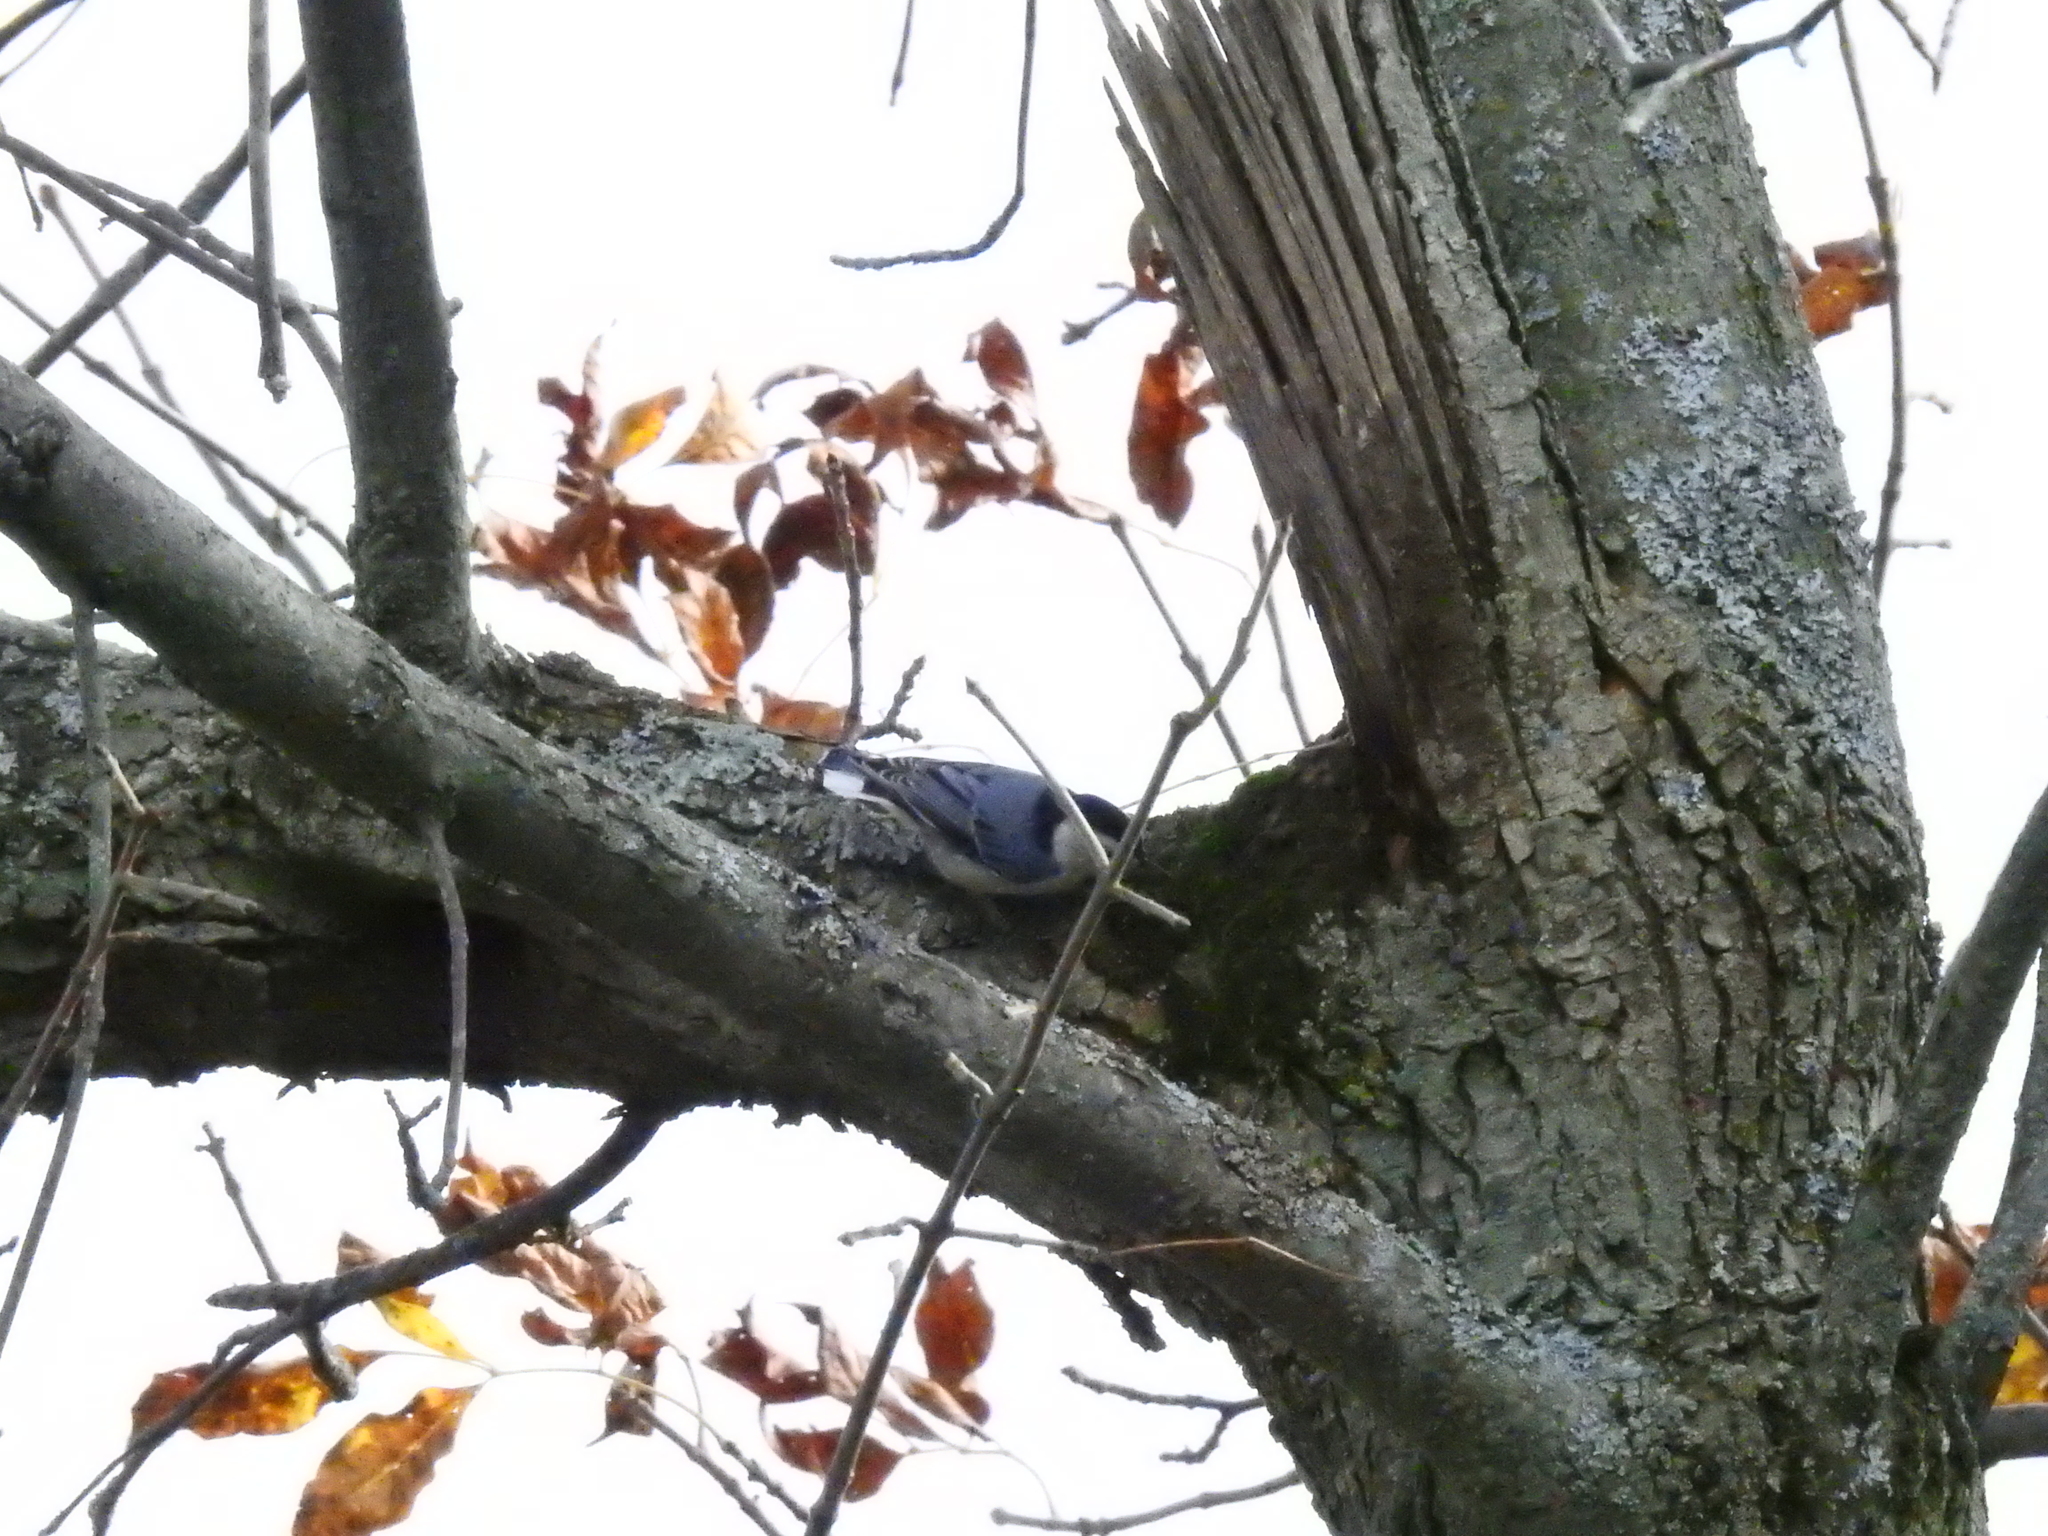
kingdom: Animalia
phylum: Chordata
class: Aves
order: Passeriformes
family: Sittidae
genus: Sitta
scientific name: Sitta carolinensis
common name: White-breasted nuthatch
